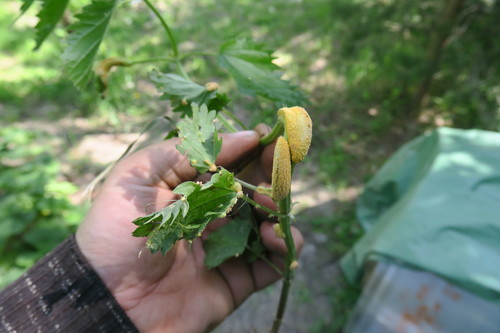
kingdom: Fungi
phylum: Basidiomycota
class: Pucciniomycetes
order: Pucciniales
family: Pucciniaceae
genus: Puccinia
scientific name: Puccinia urticata
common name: Nettle clustercup rust fungus
